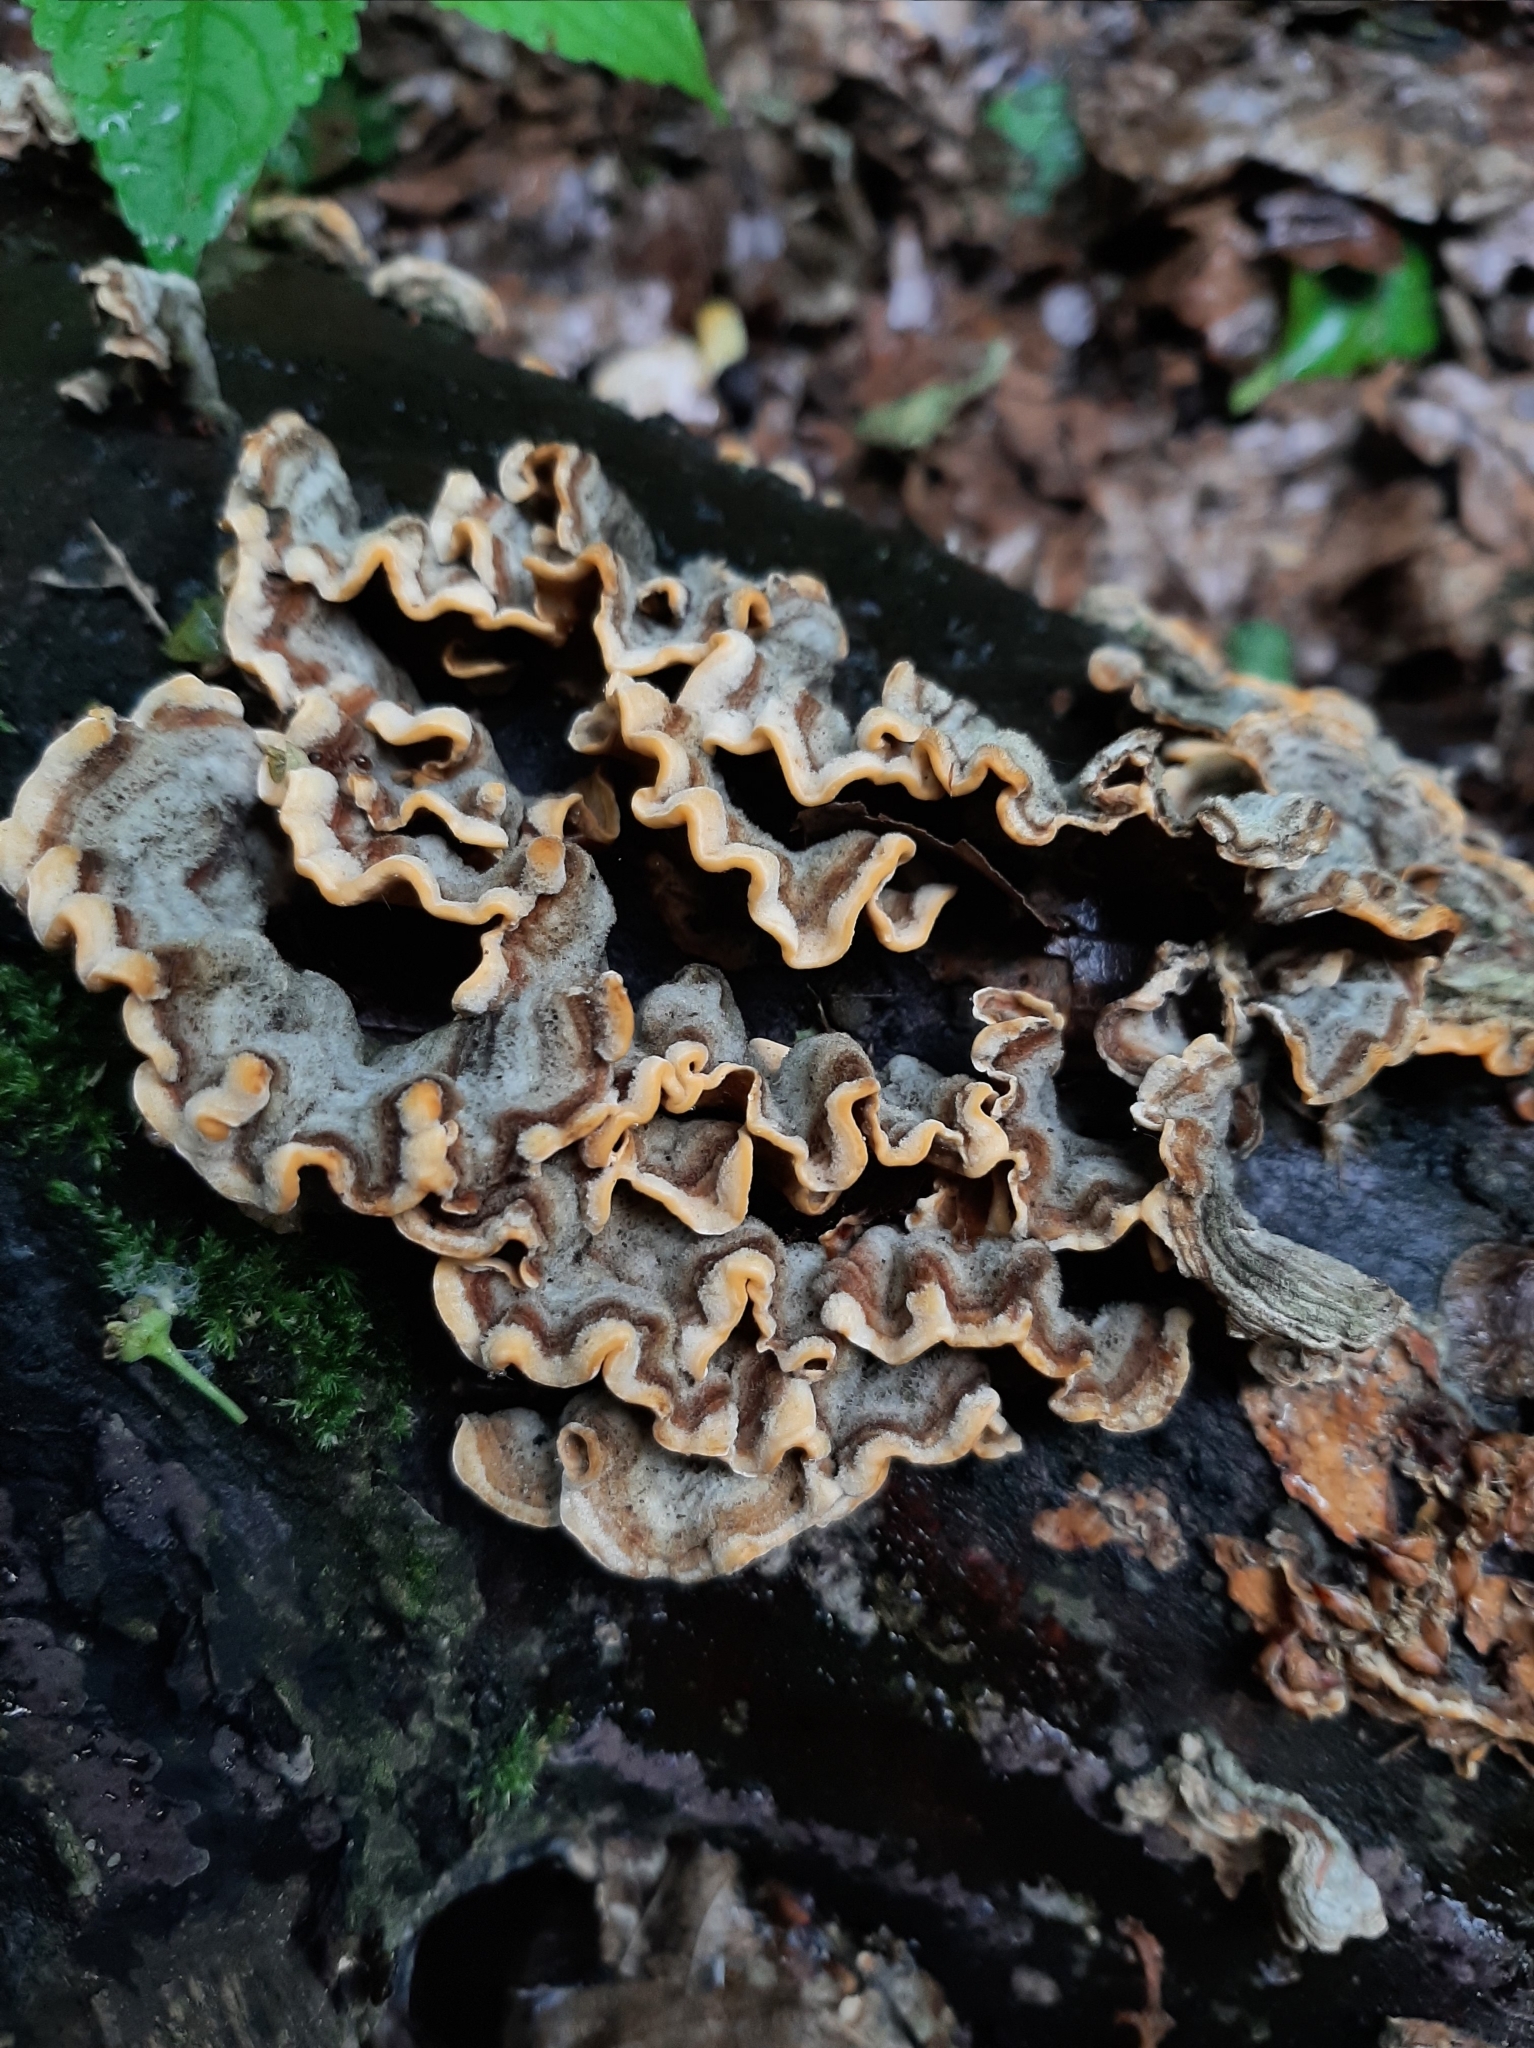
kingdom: Fungi
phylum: Basidiomycota
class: Agaricomycetes
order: Russulales
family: Stereaceae
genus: Stereum
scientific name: Stereum hirsutum
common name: Hairy curtain crust
